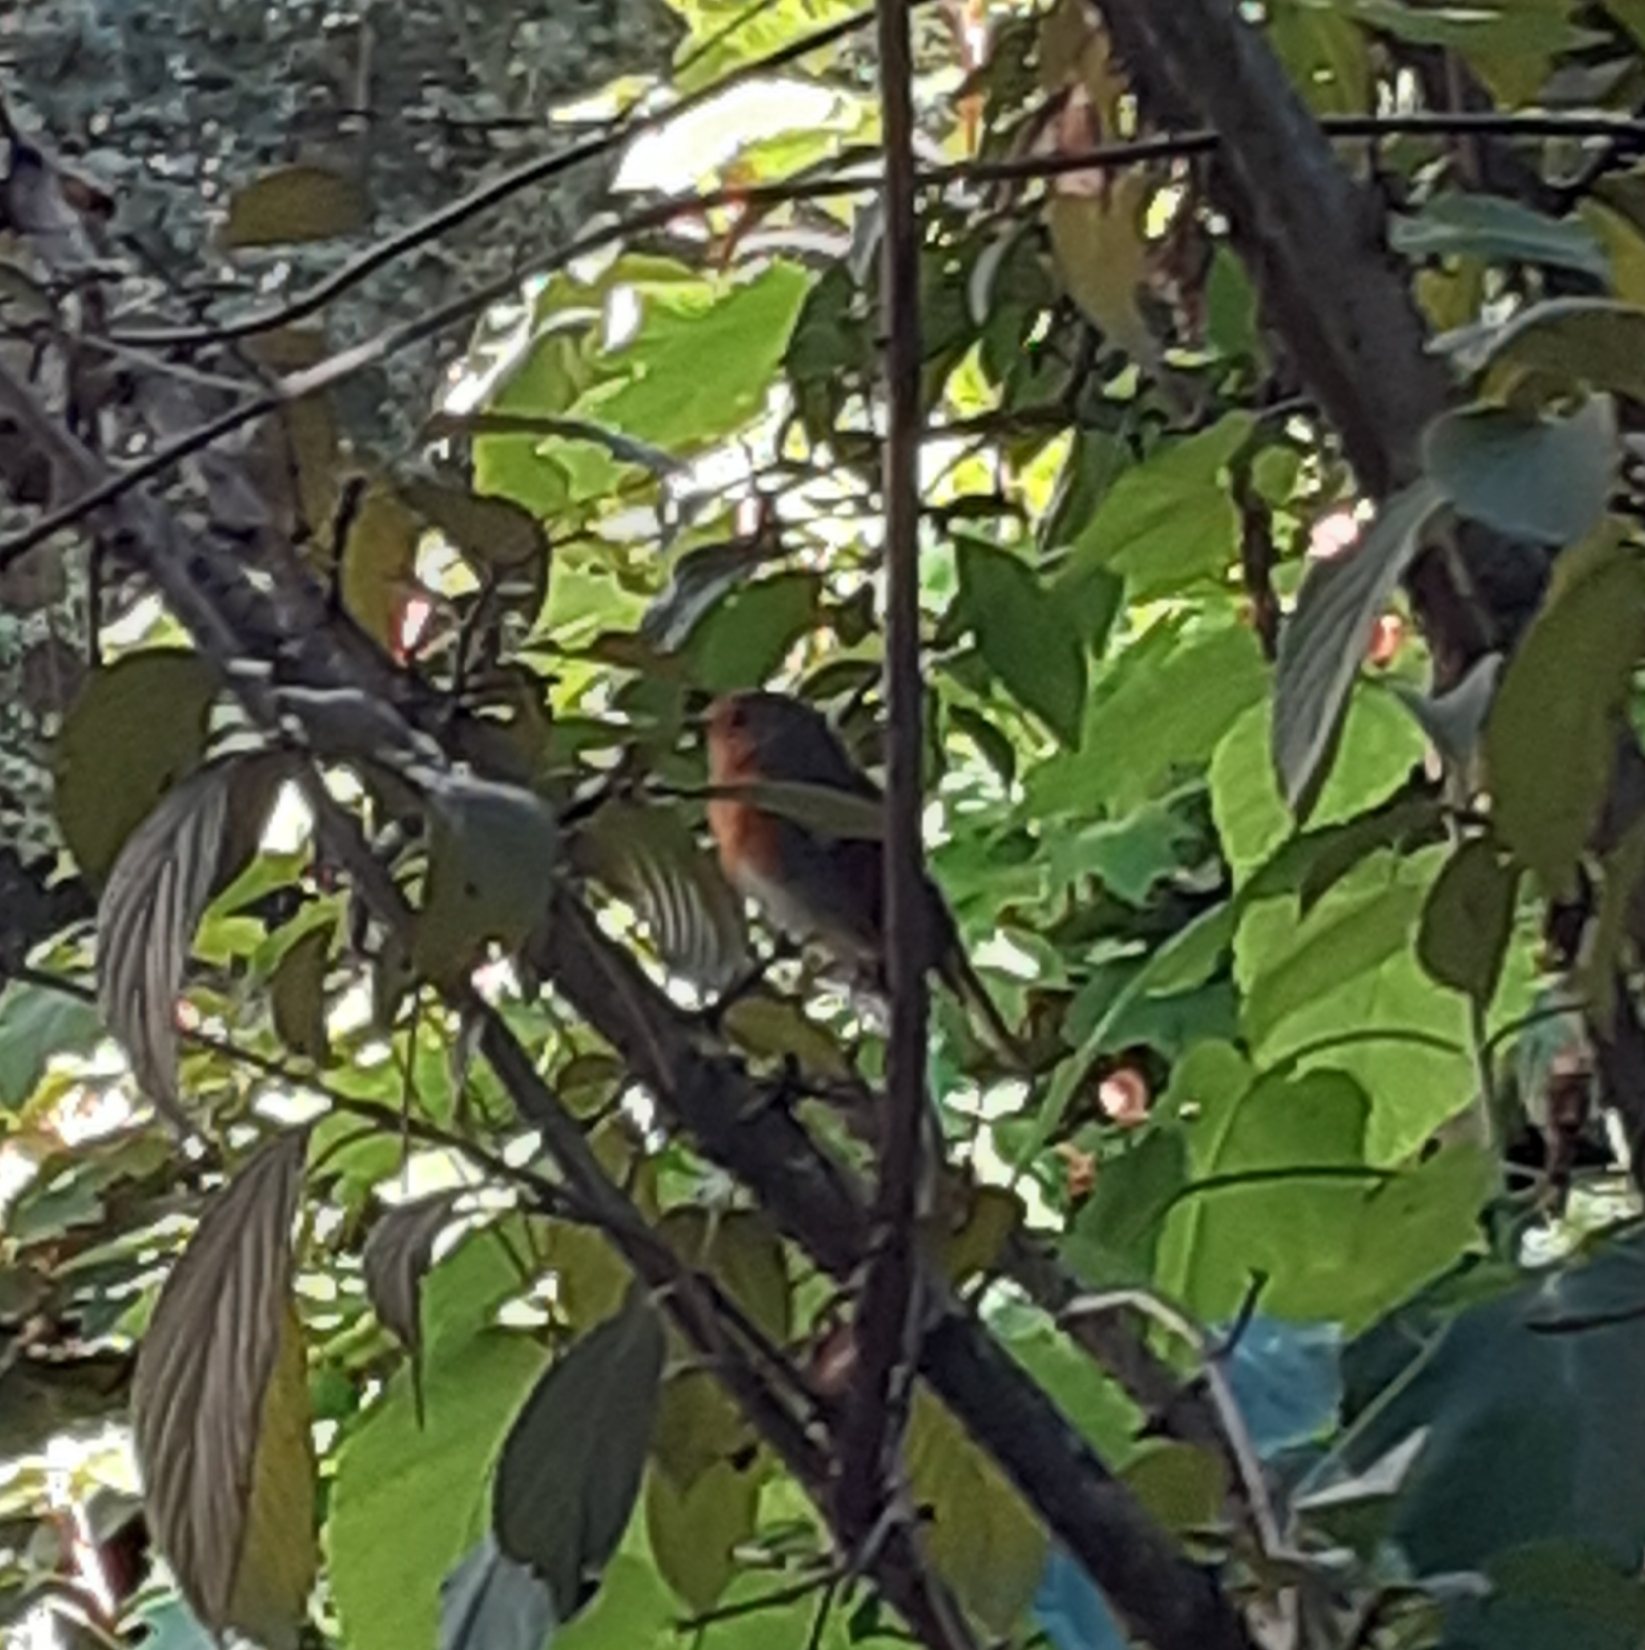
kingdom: Animalia
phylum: Chordata
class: Aves
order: Passeriformes
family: Muscicapidae
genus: Erithacus
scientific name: Erithacus rubecula
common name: European robin
